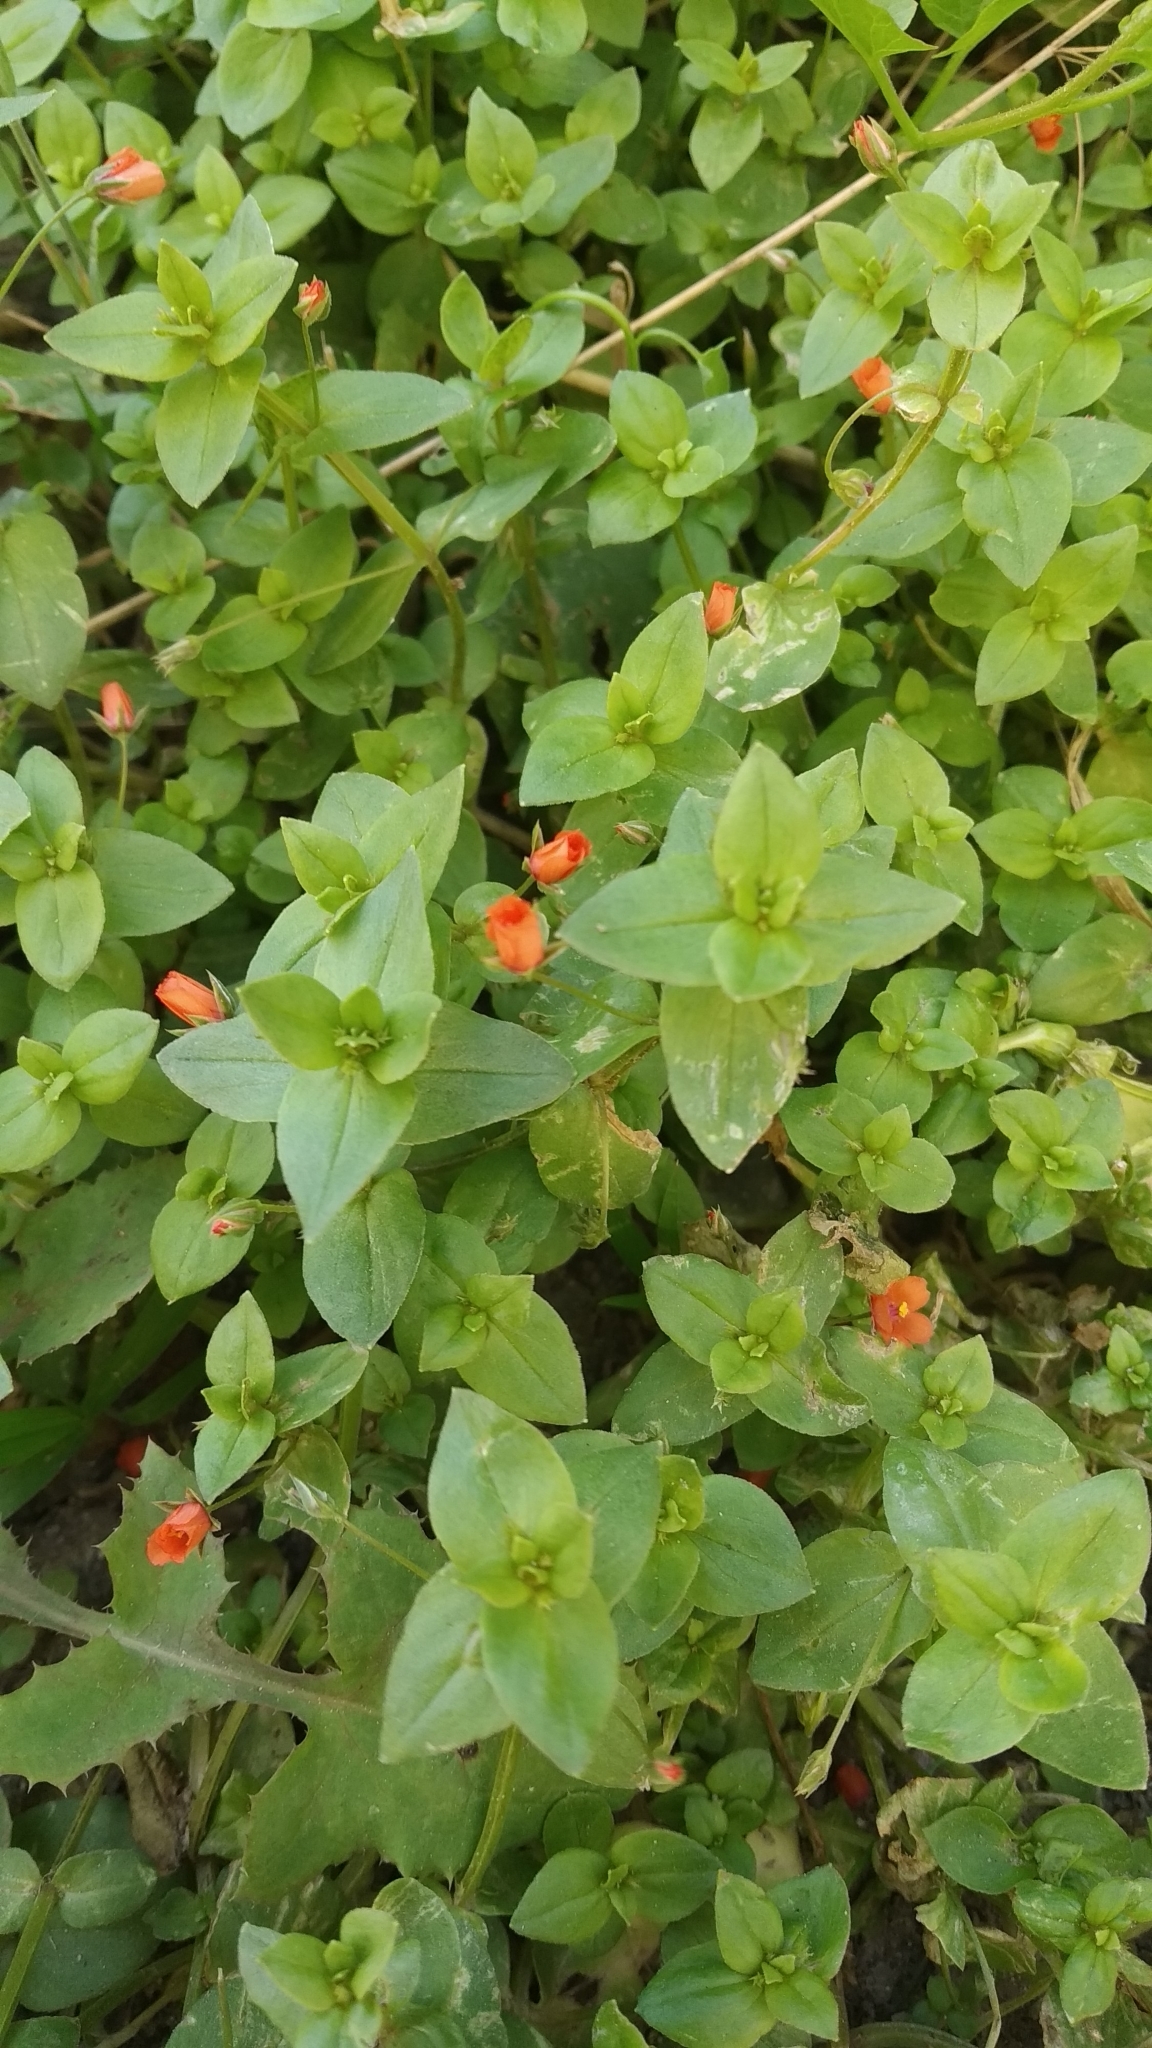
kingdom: Plantae
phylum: Tracheophyta
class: Magnoliopsida
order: Ericales
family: Primulaceae
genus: Lysimachia
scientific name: Lysimachia arvensis
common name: Scarlet pimpernel
